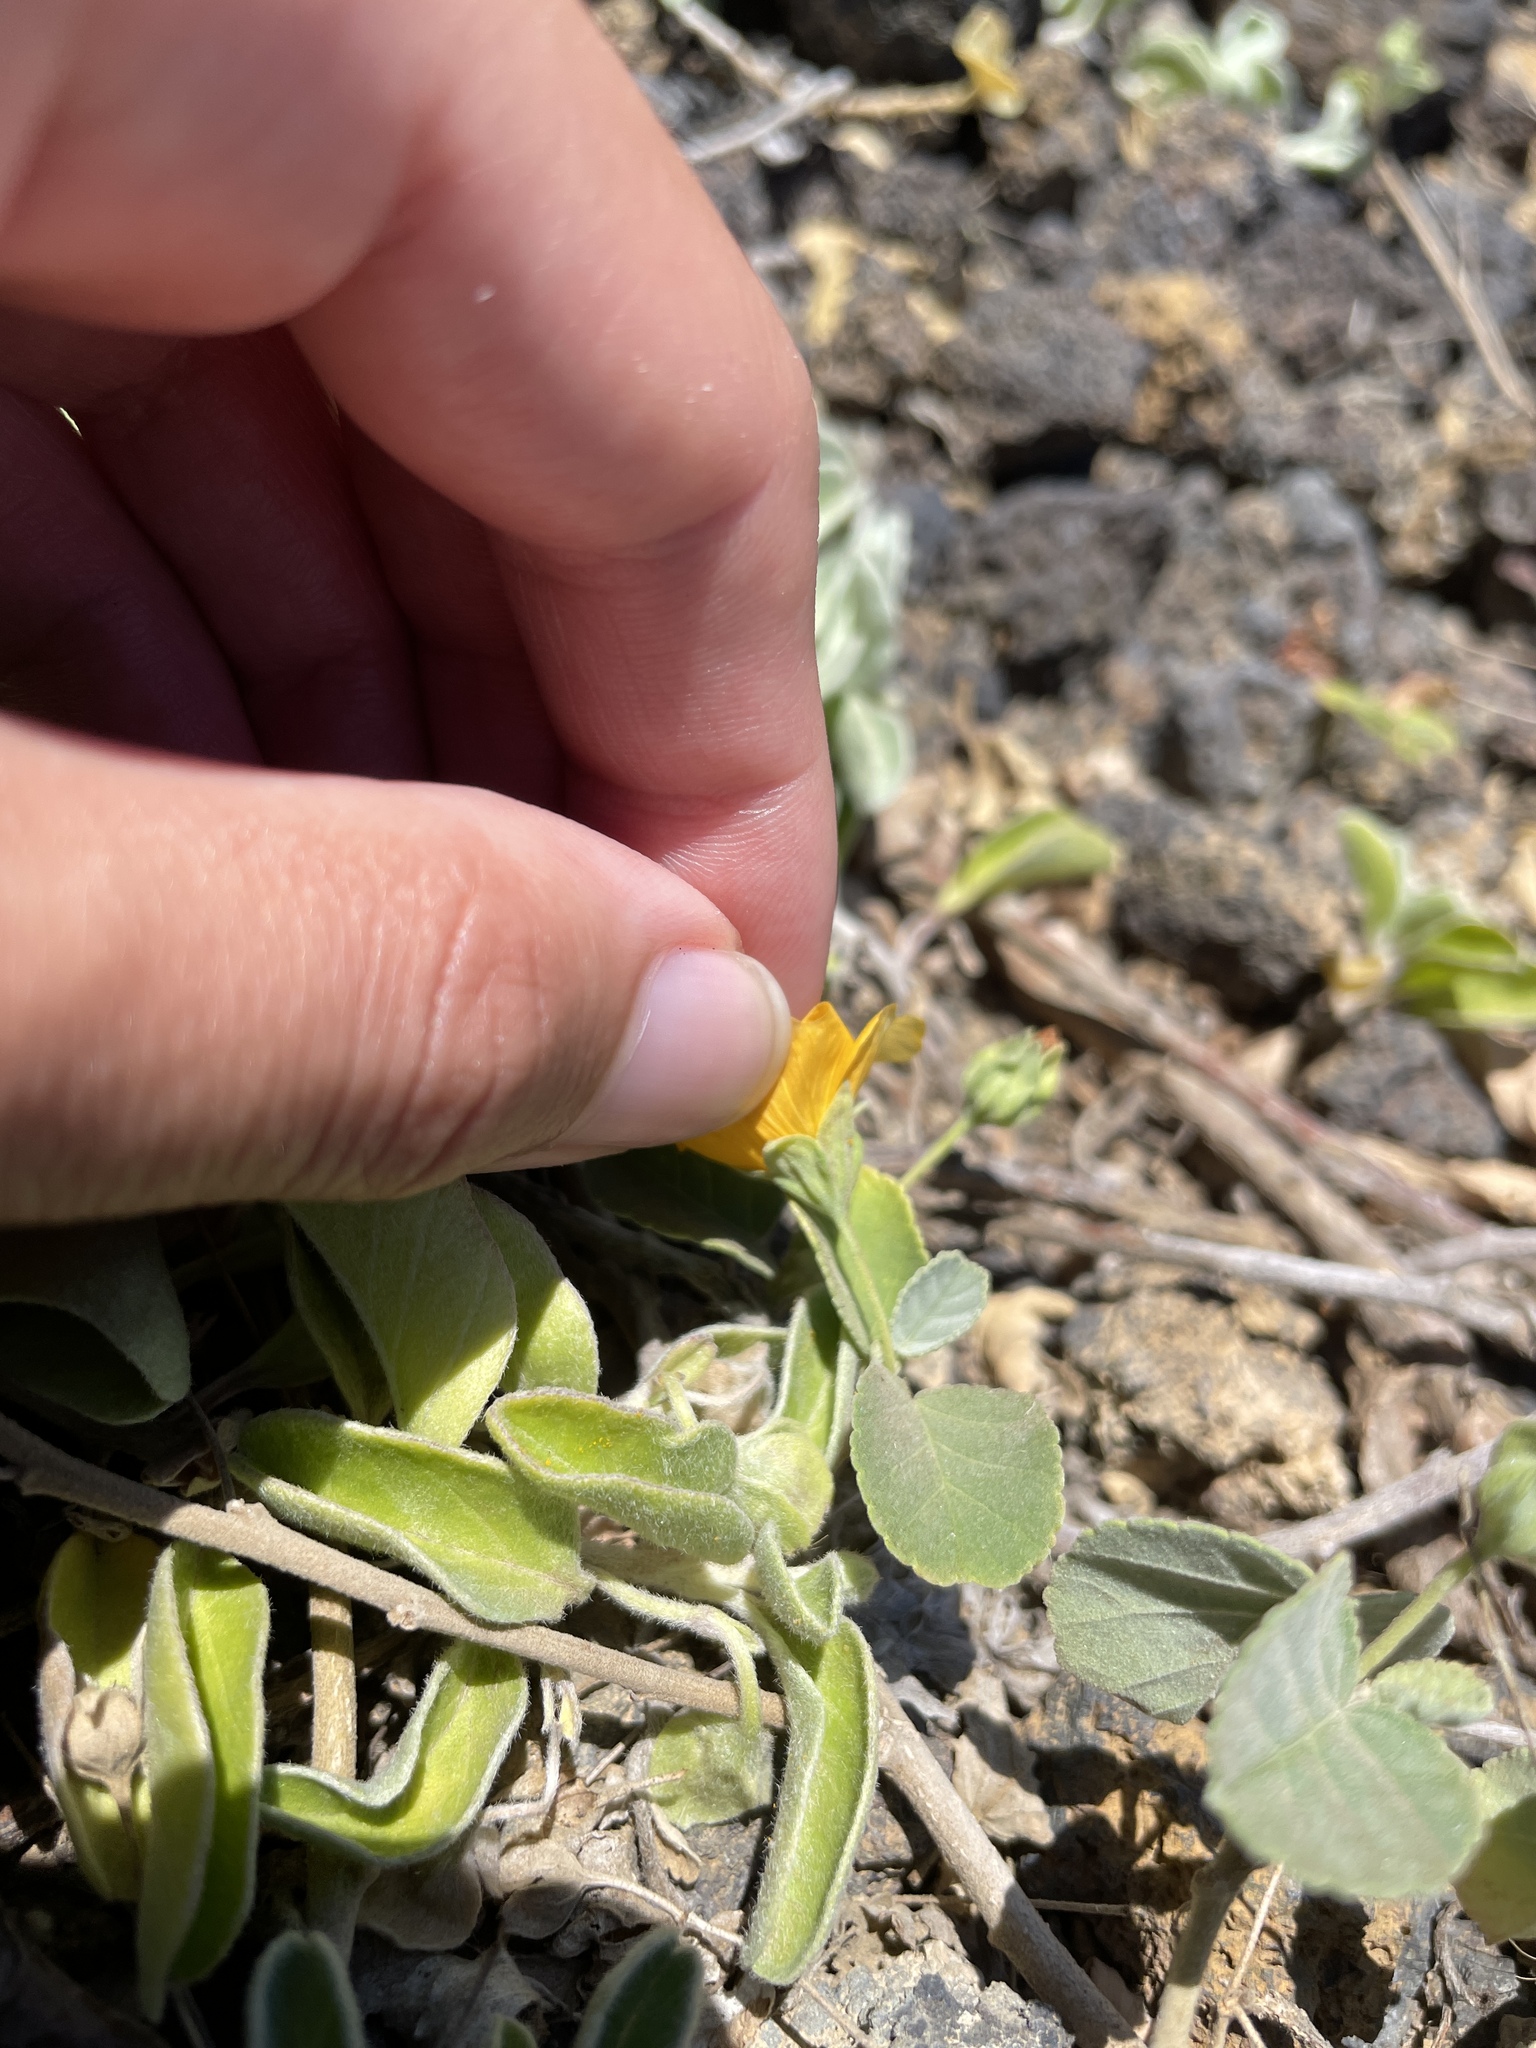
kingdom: Plantae
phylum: Tracheophyta
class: Magnoliopsida
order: Malvales
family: Malvaceae
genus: Sida
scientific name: Sida fallax
